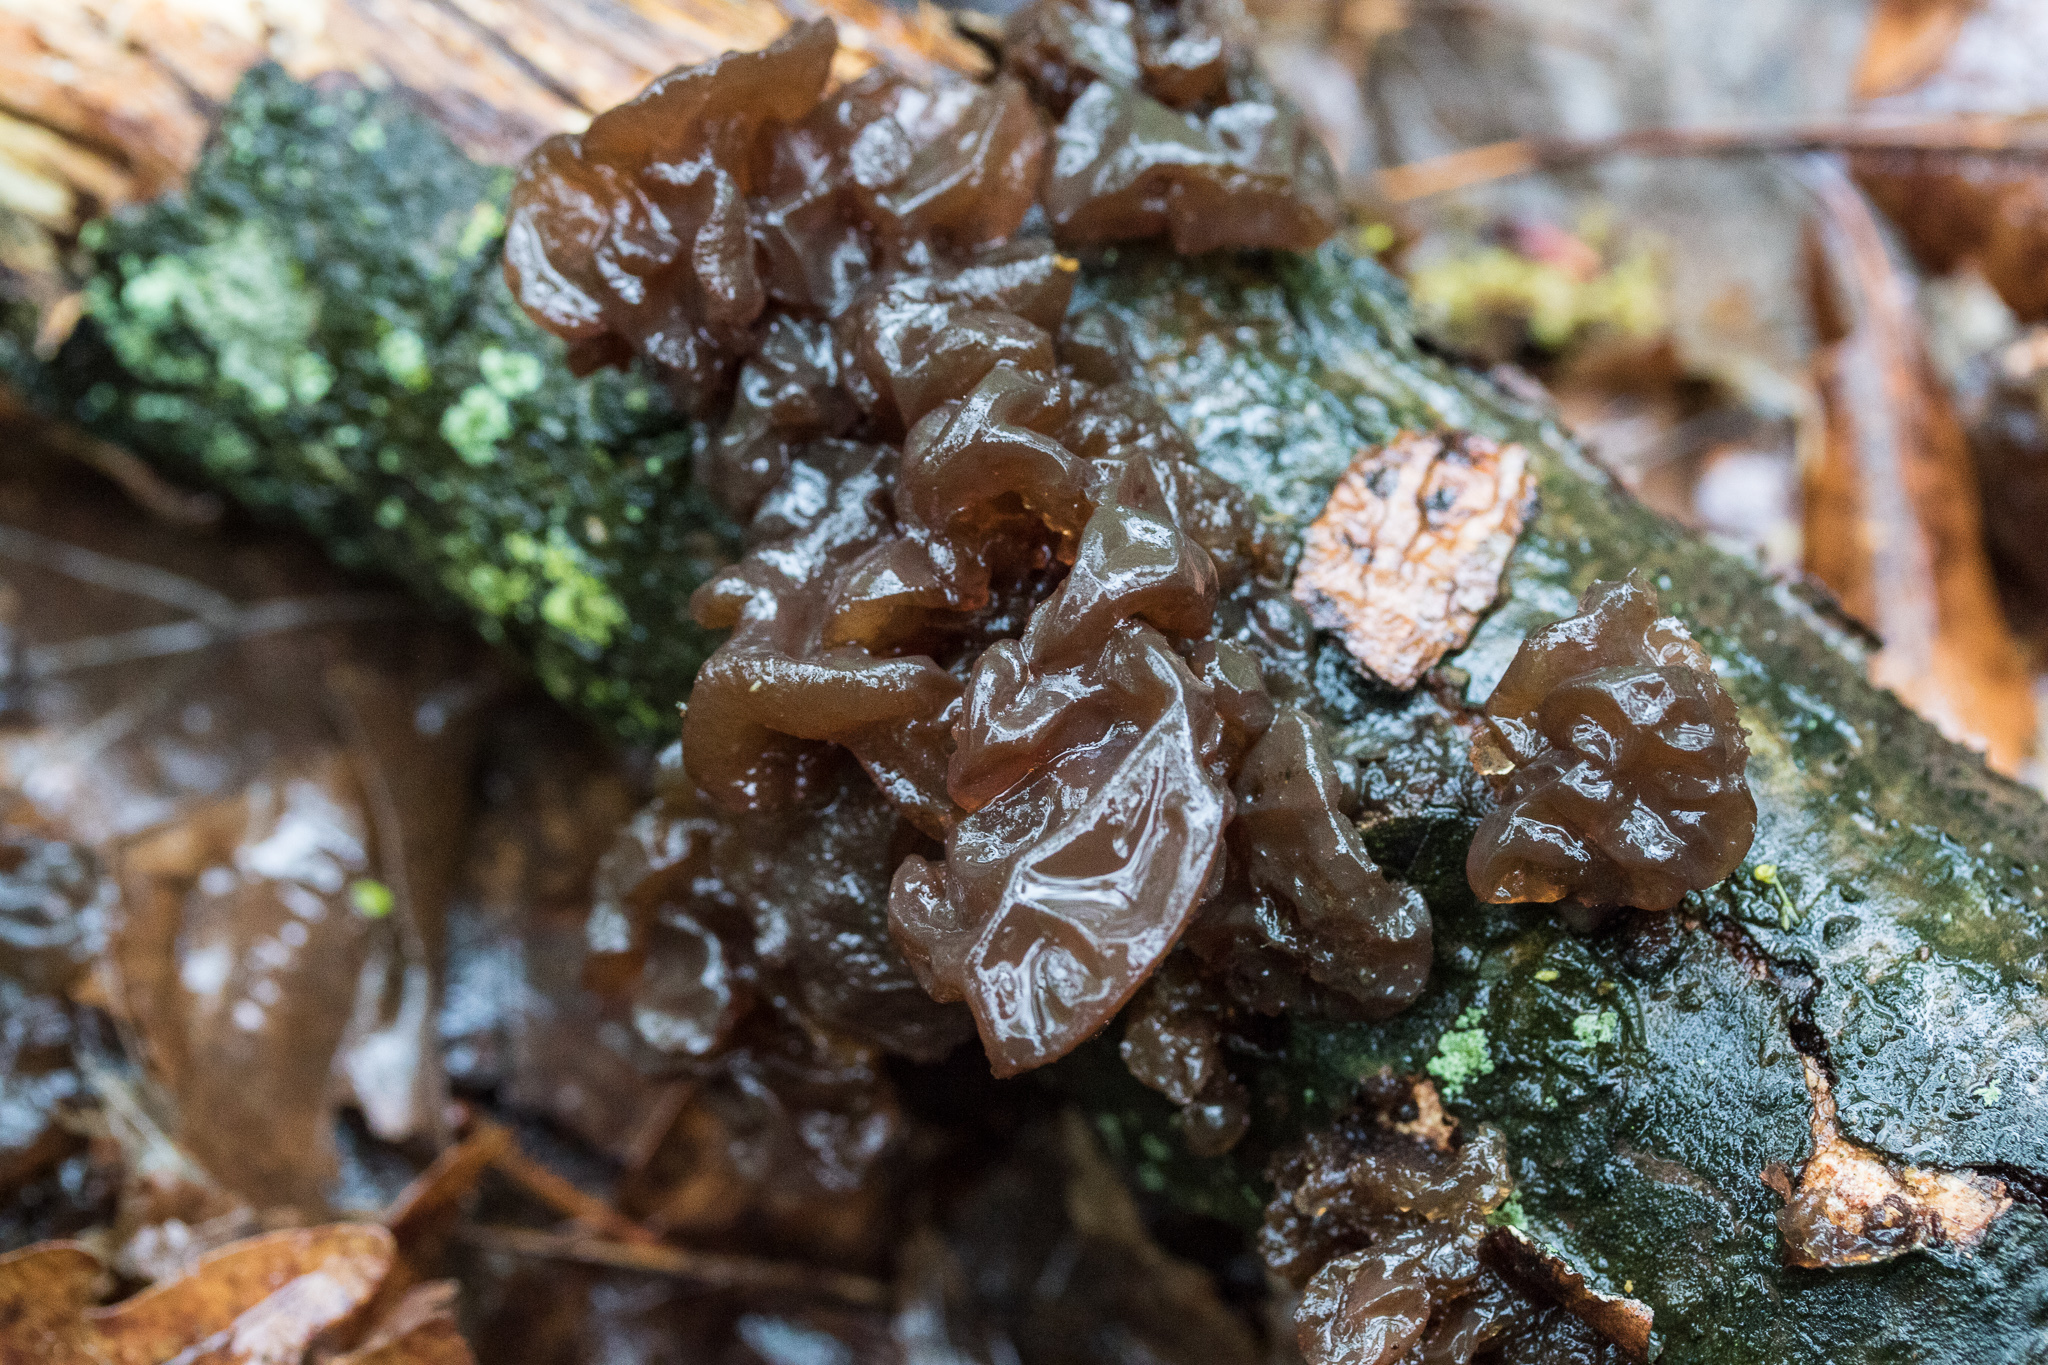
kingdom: Fungi
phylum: Basidiomycota
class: Agaricomycetes
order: Auriculariales
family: Auriculariaceae
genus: Exidia
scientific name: Exidia
